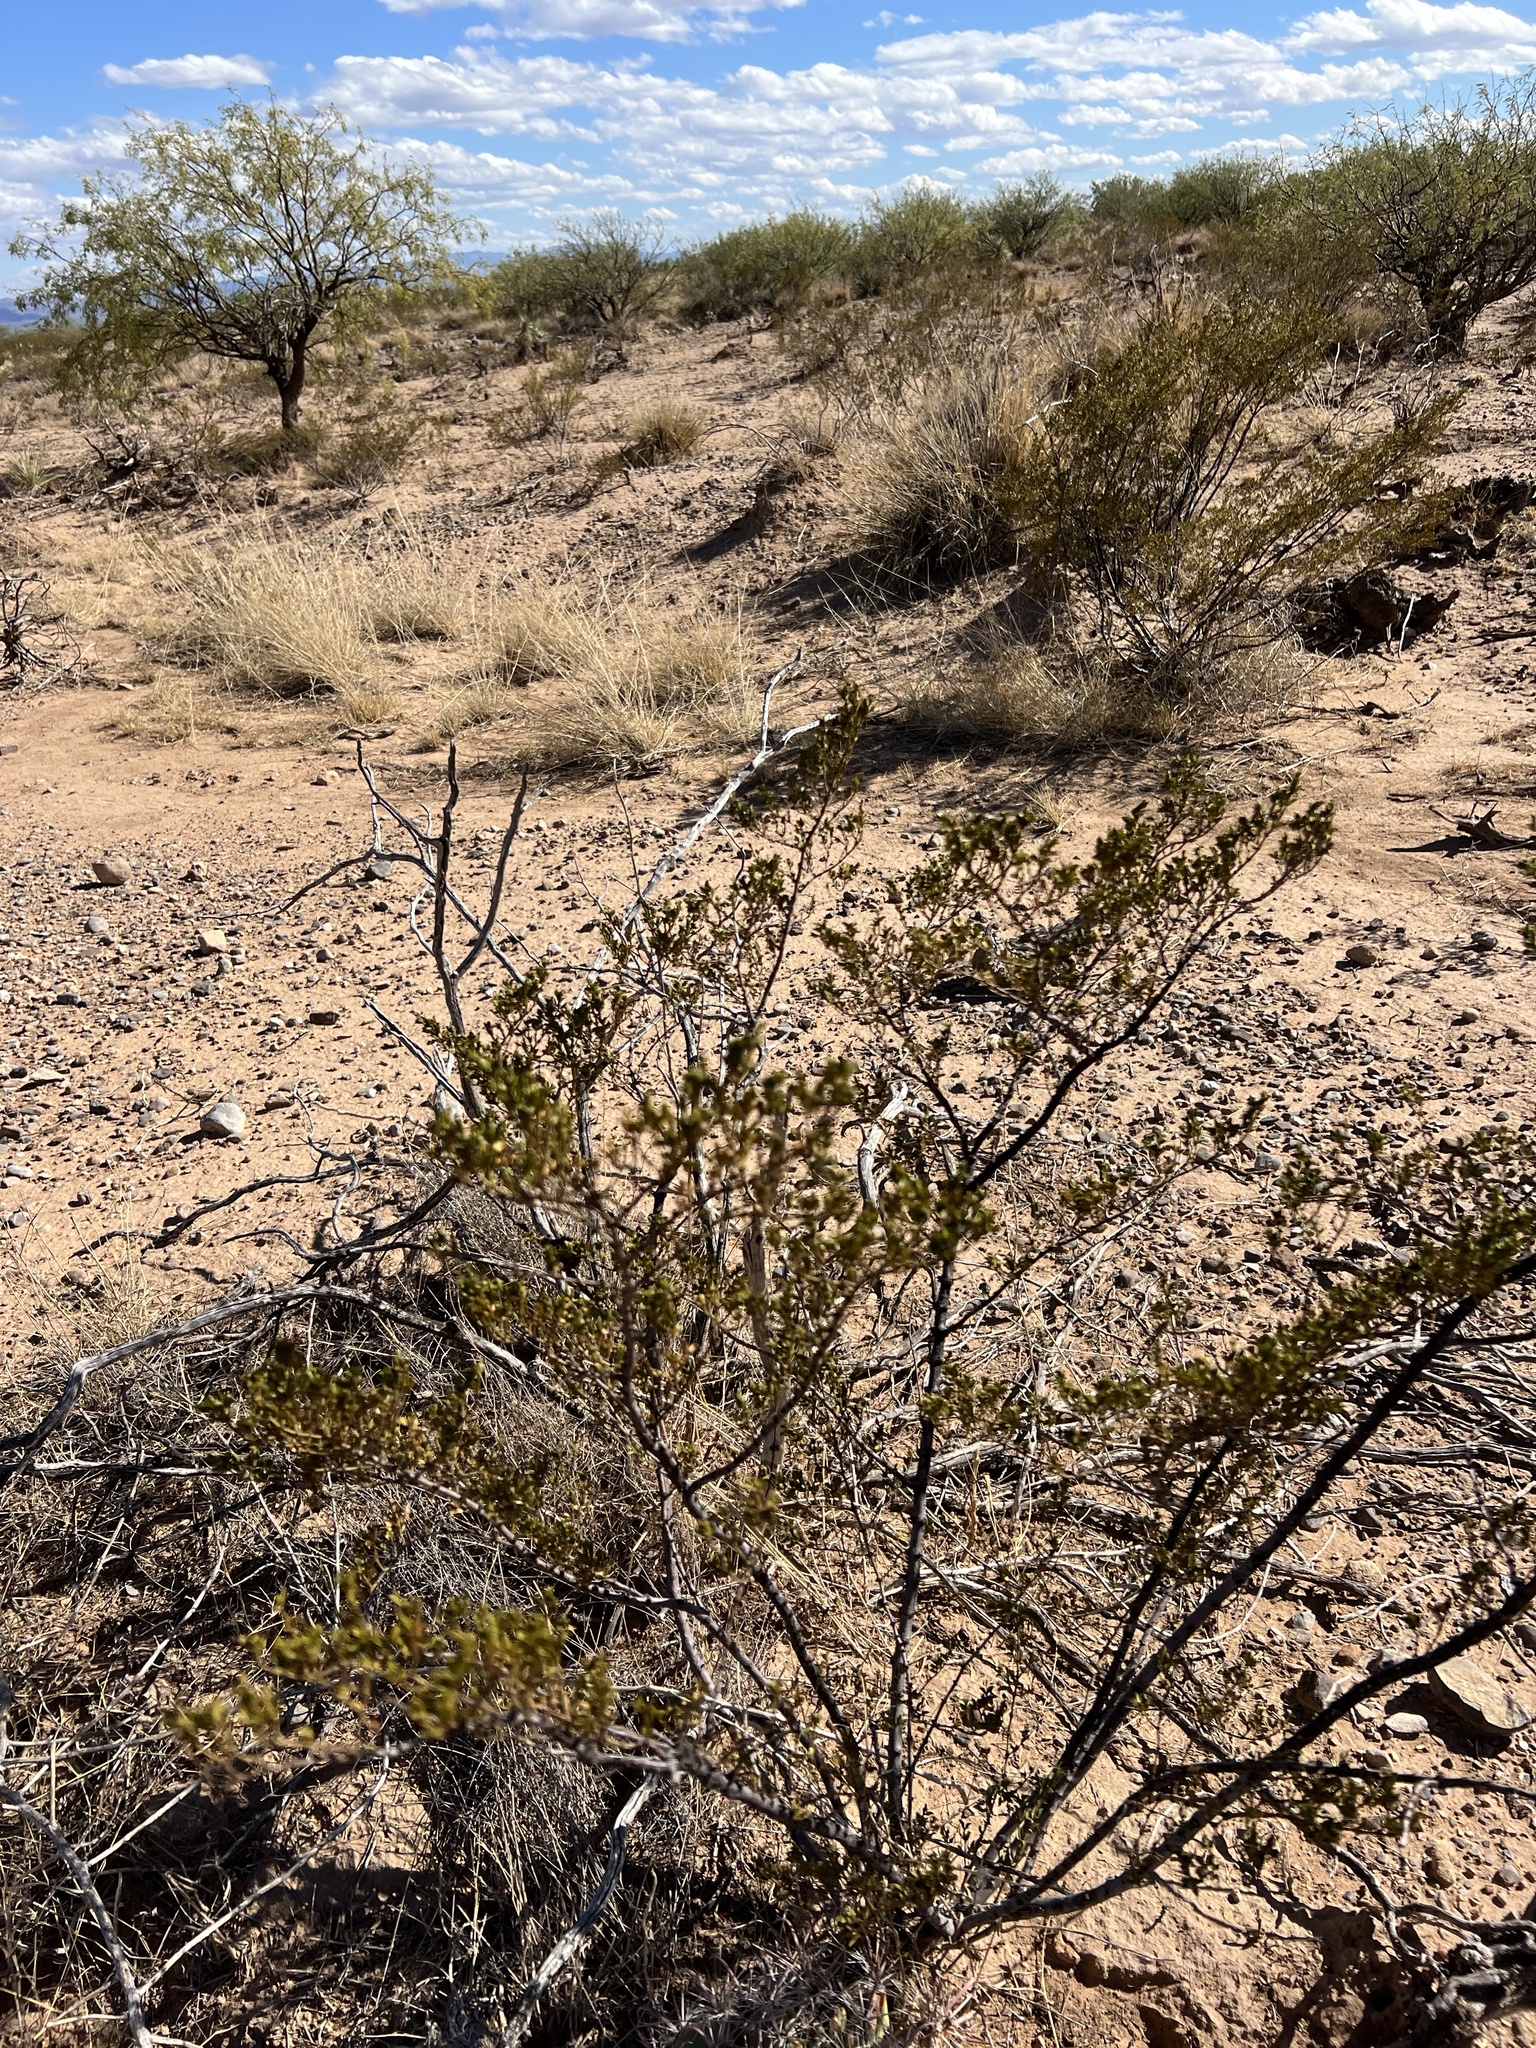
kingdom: Plantae
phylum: Tracheophyta
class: Magnoliopsida
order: Zygophyllales
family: Zygophyllaceae
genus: Larrea
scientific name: Larrea tridentata
